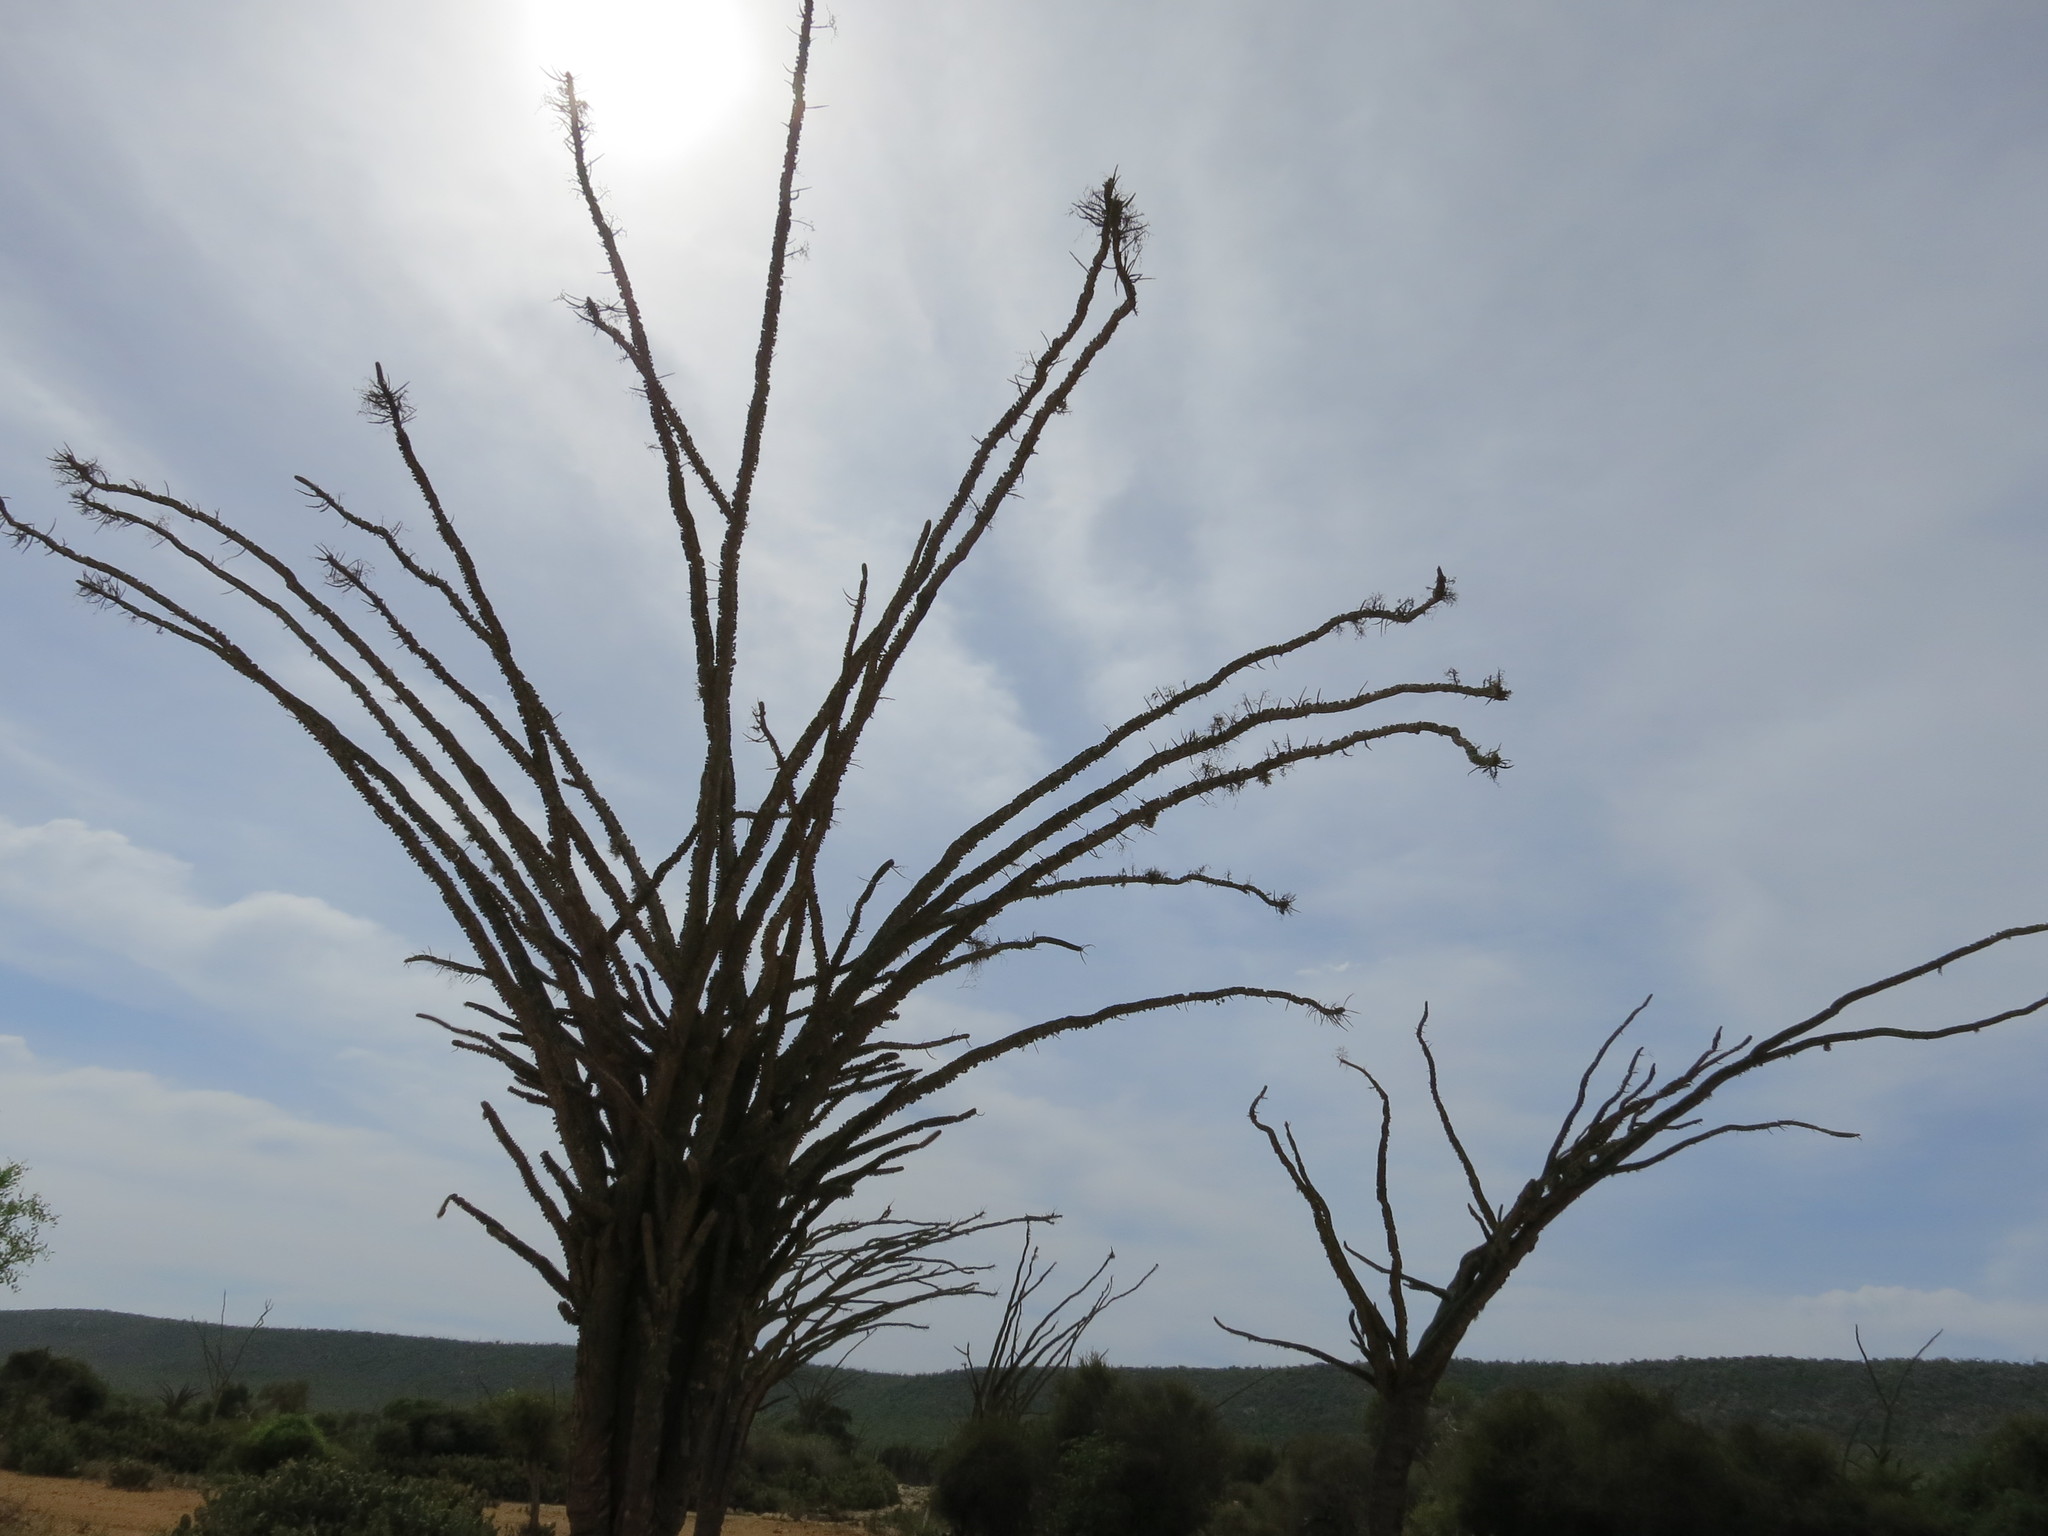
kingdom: Plantae
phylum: Tracheophyta
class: Magnoliopsida
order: Caryophyllales
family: Didiereaceae
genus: Alluaudia
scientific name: Alluaudia montagnacii
